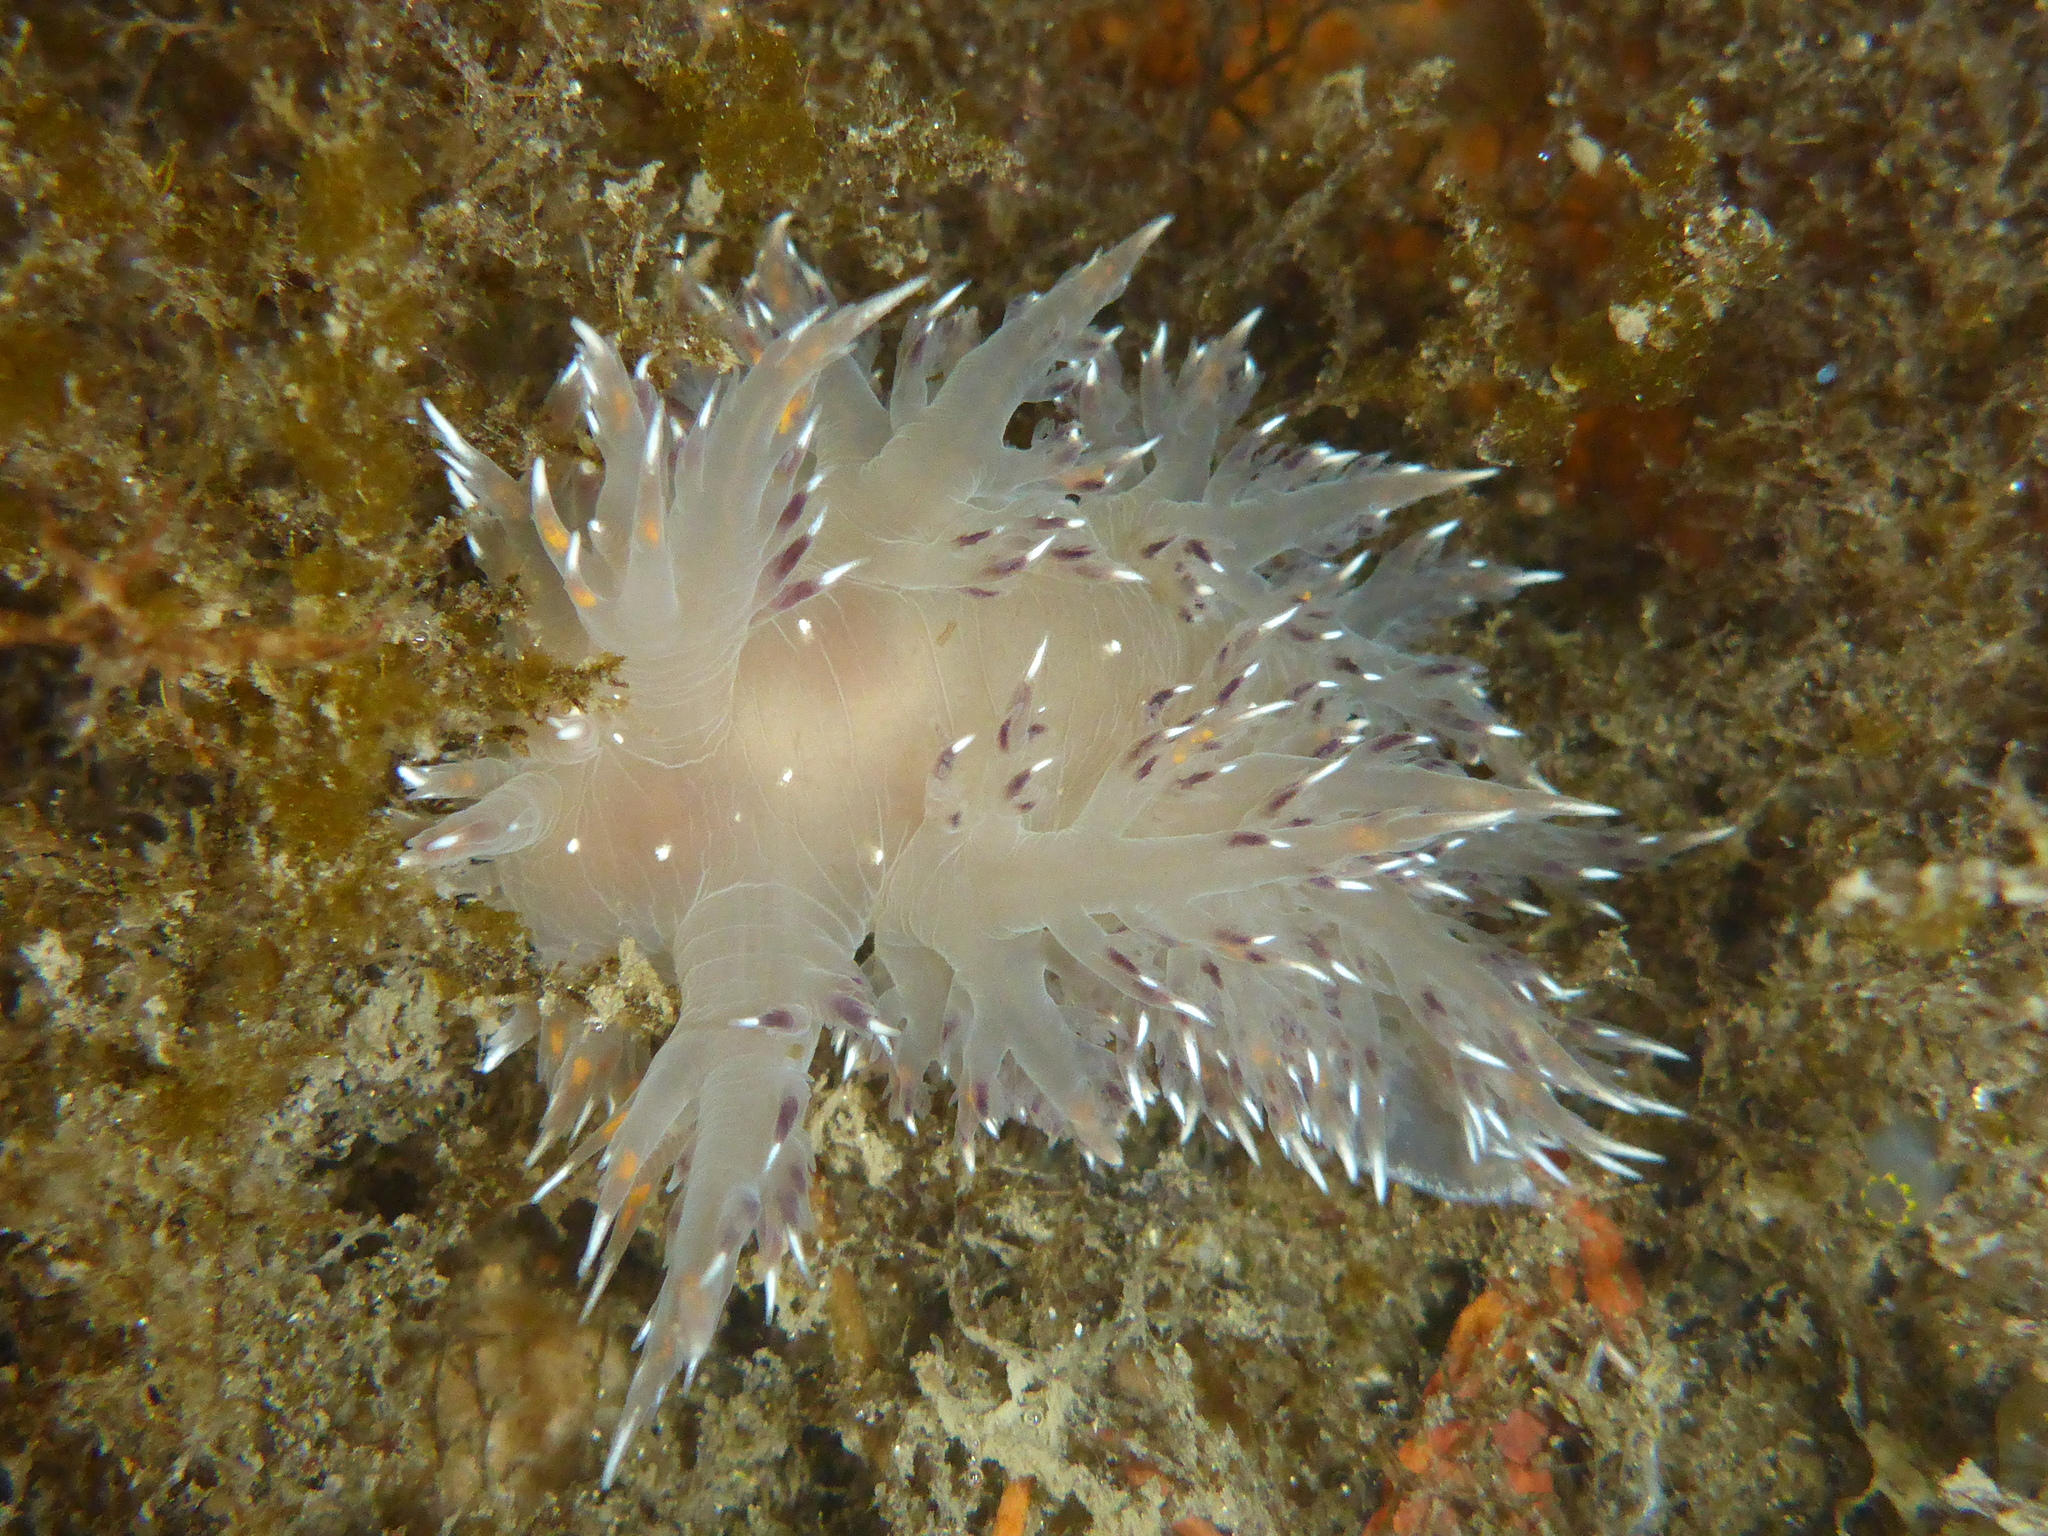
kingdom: Animalia
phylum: Mollusca
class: Gastropoda
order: Nudibranchia
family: Dendronotidae
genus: Dendronotus
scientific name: Dendronotus iris
